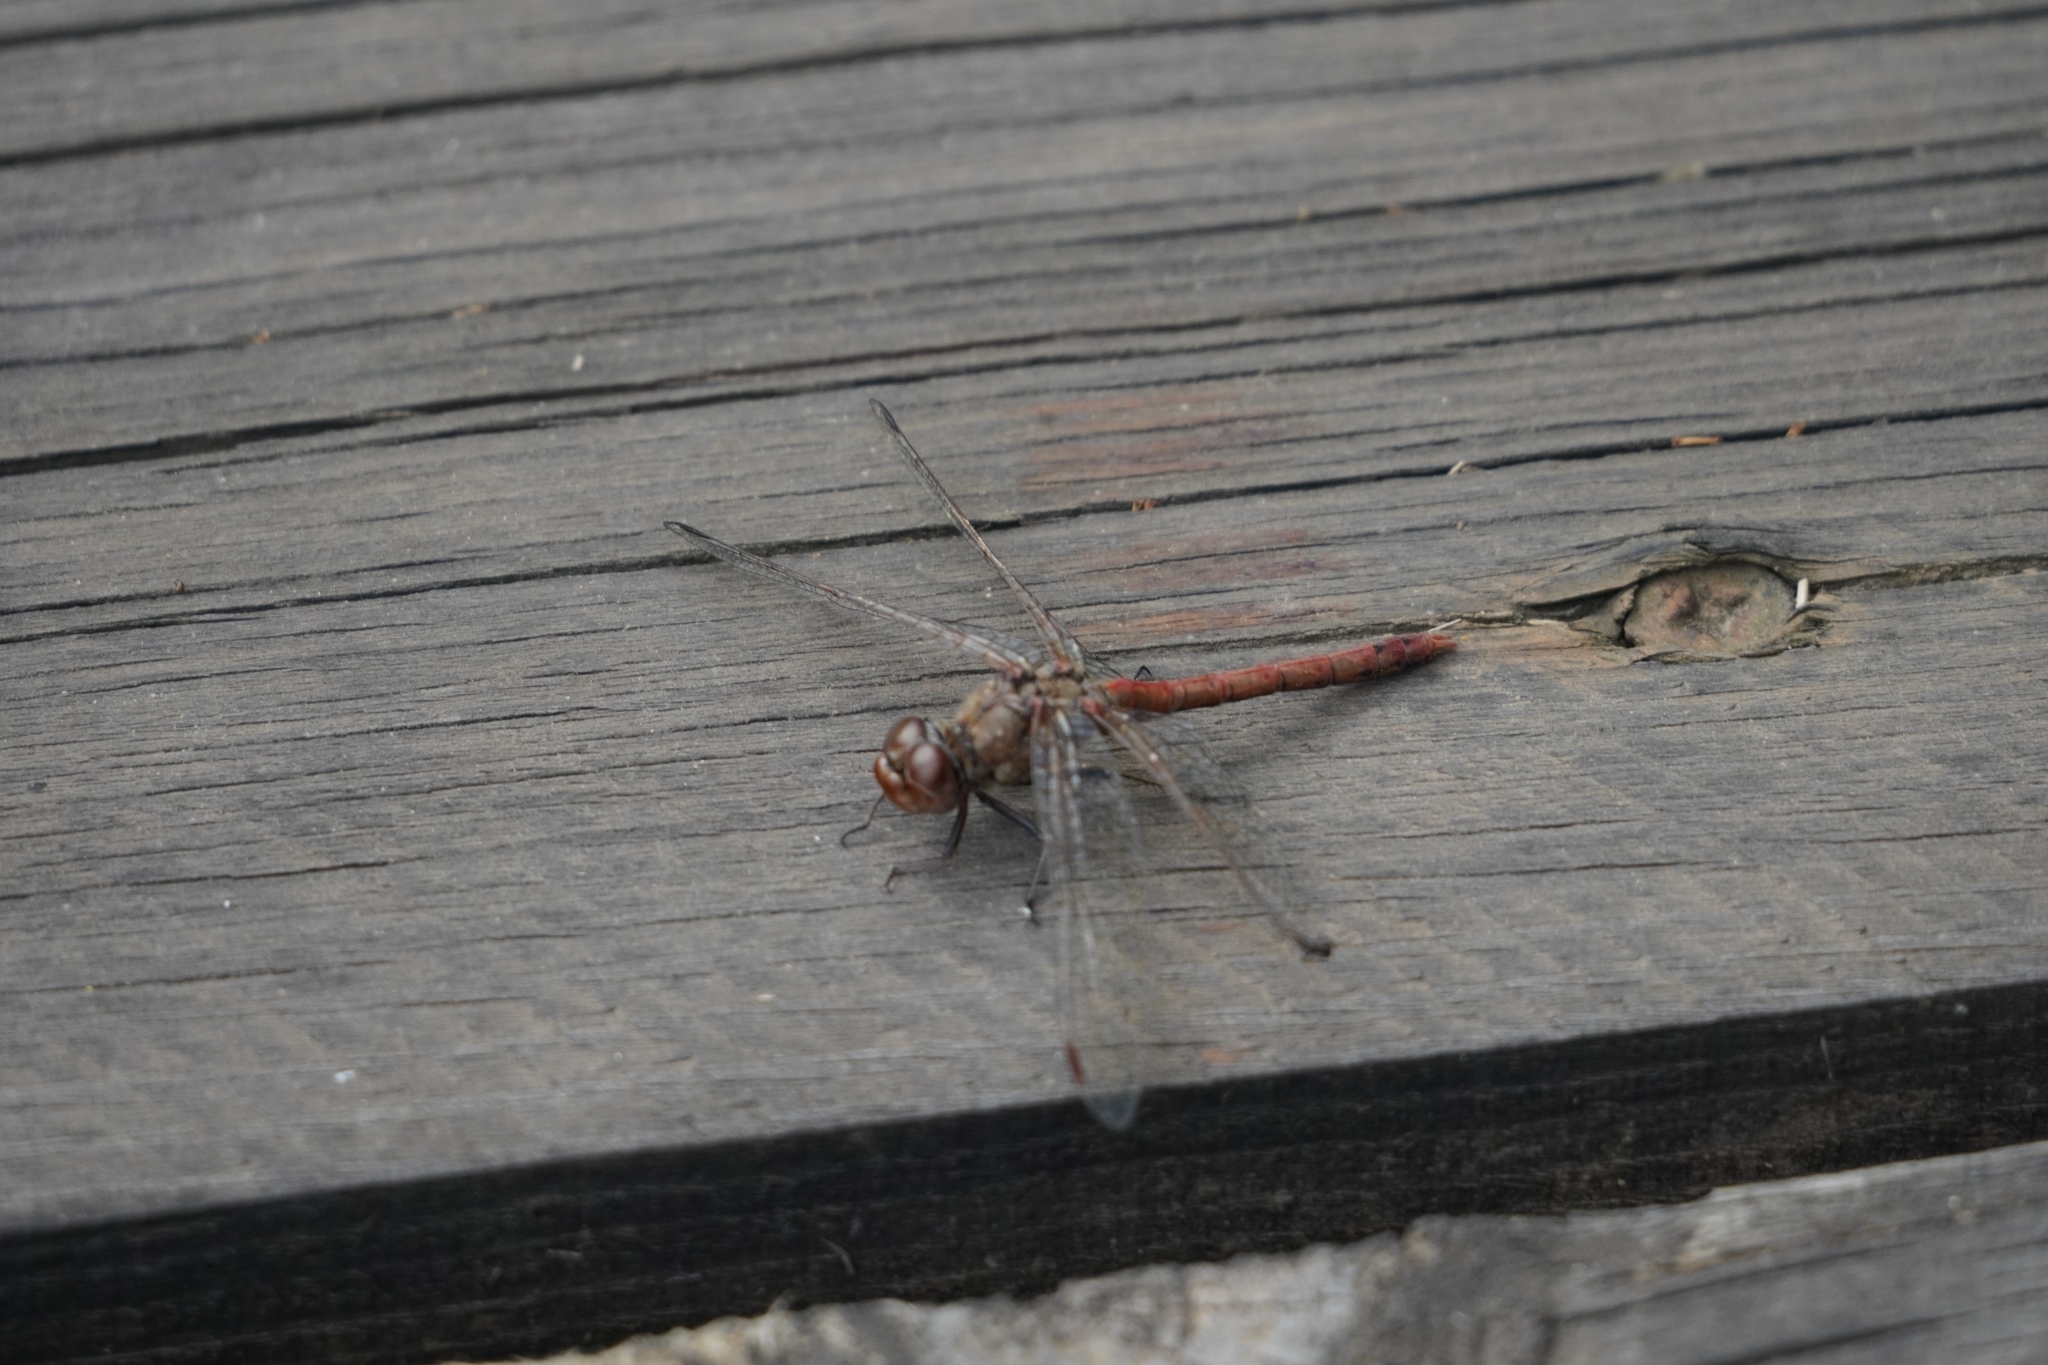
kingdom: Animalia
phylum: Arthropoda
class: Insecta
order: Odonata
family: Libellulidae
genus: Sympetrum
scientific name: Sympetrum striolatum
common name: Common darter
